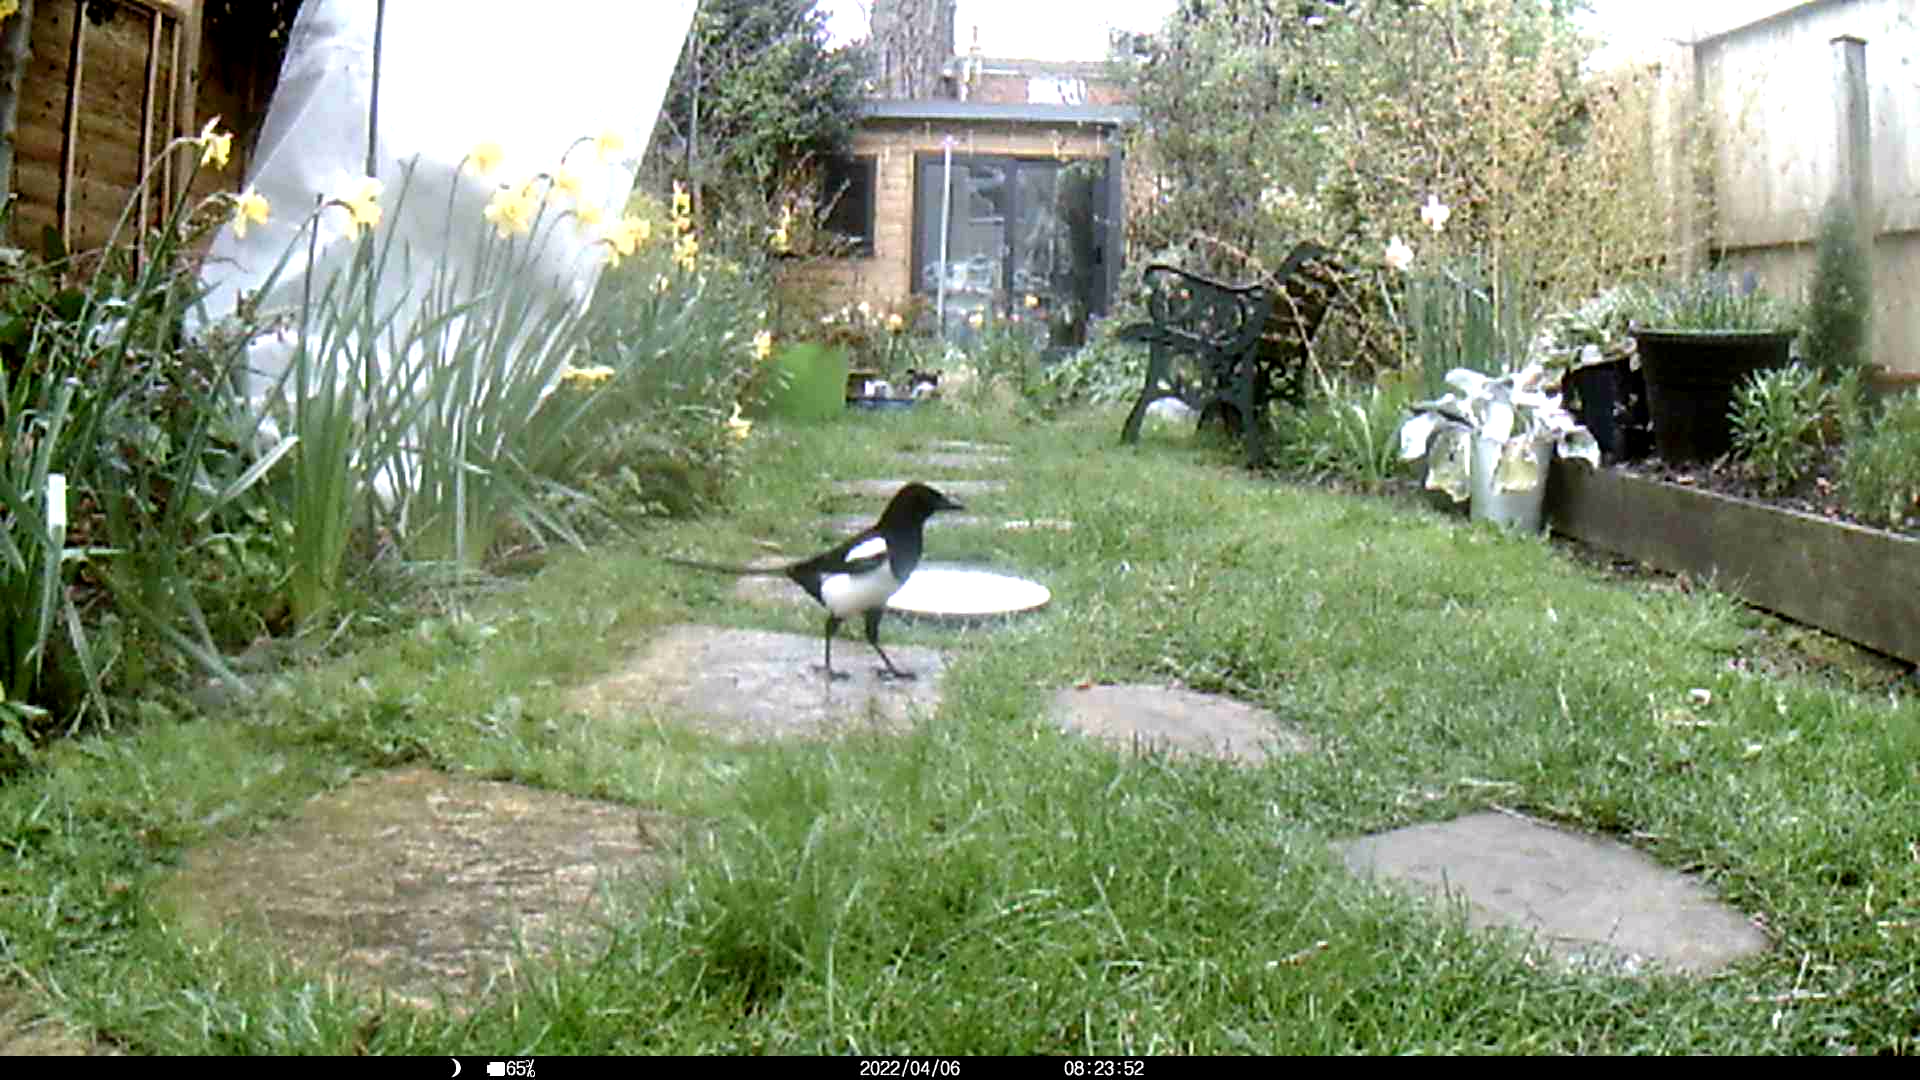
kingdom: Animalia
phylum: Chordata
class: Aves
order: Passeriformes
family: Corvidae
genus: Pica
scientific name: Pica pica
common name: Eurasian magpie
